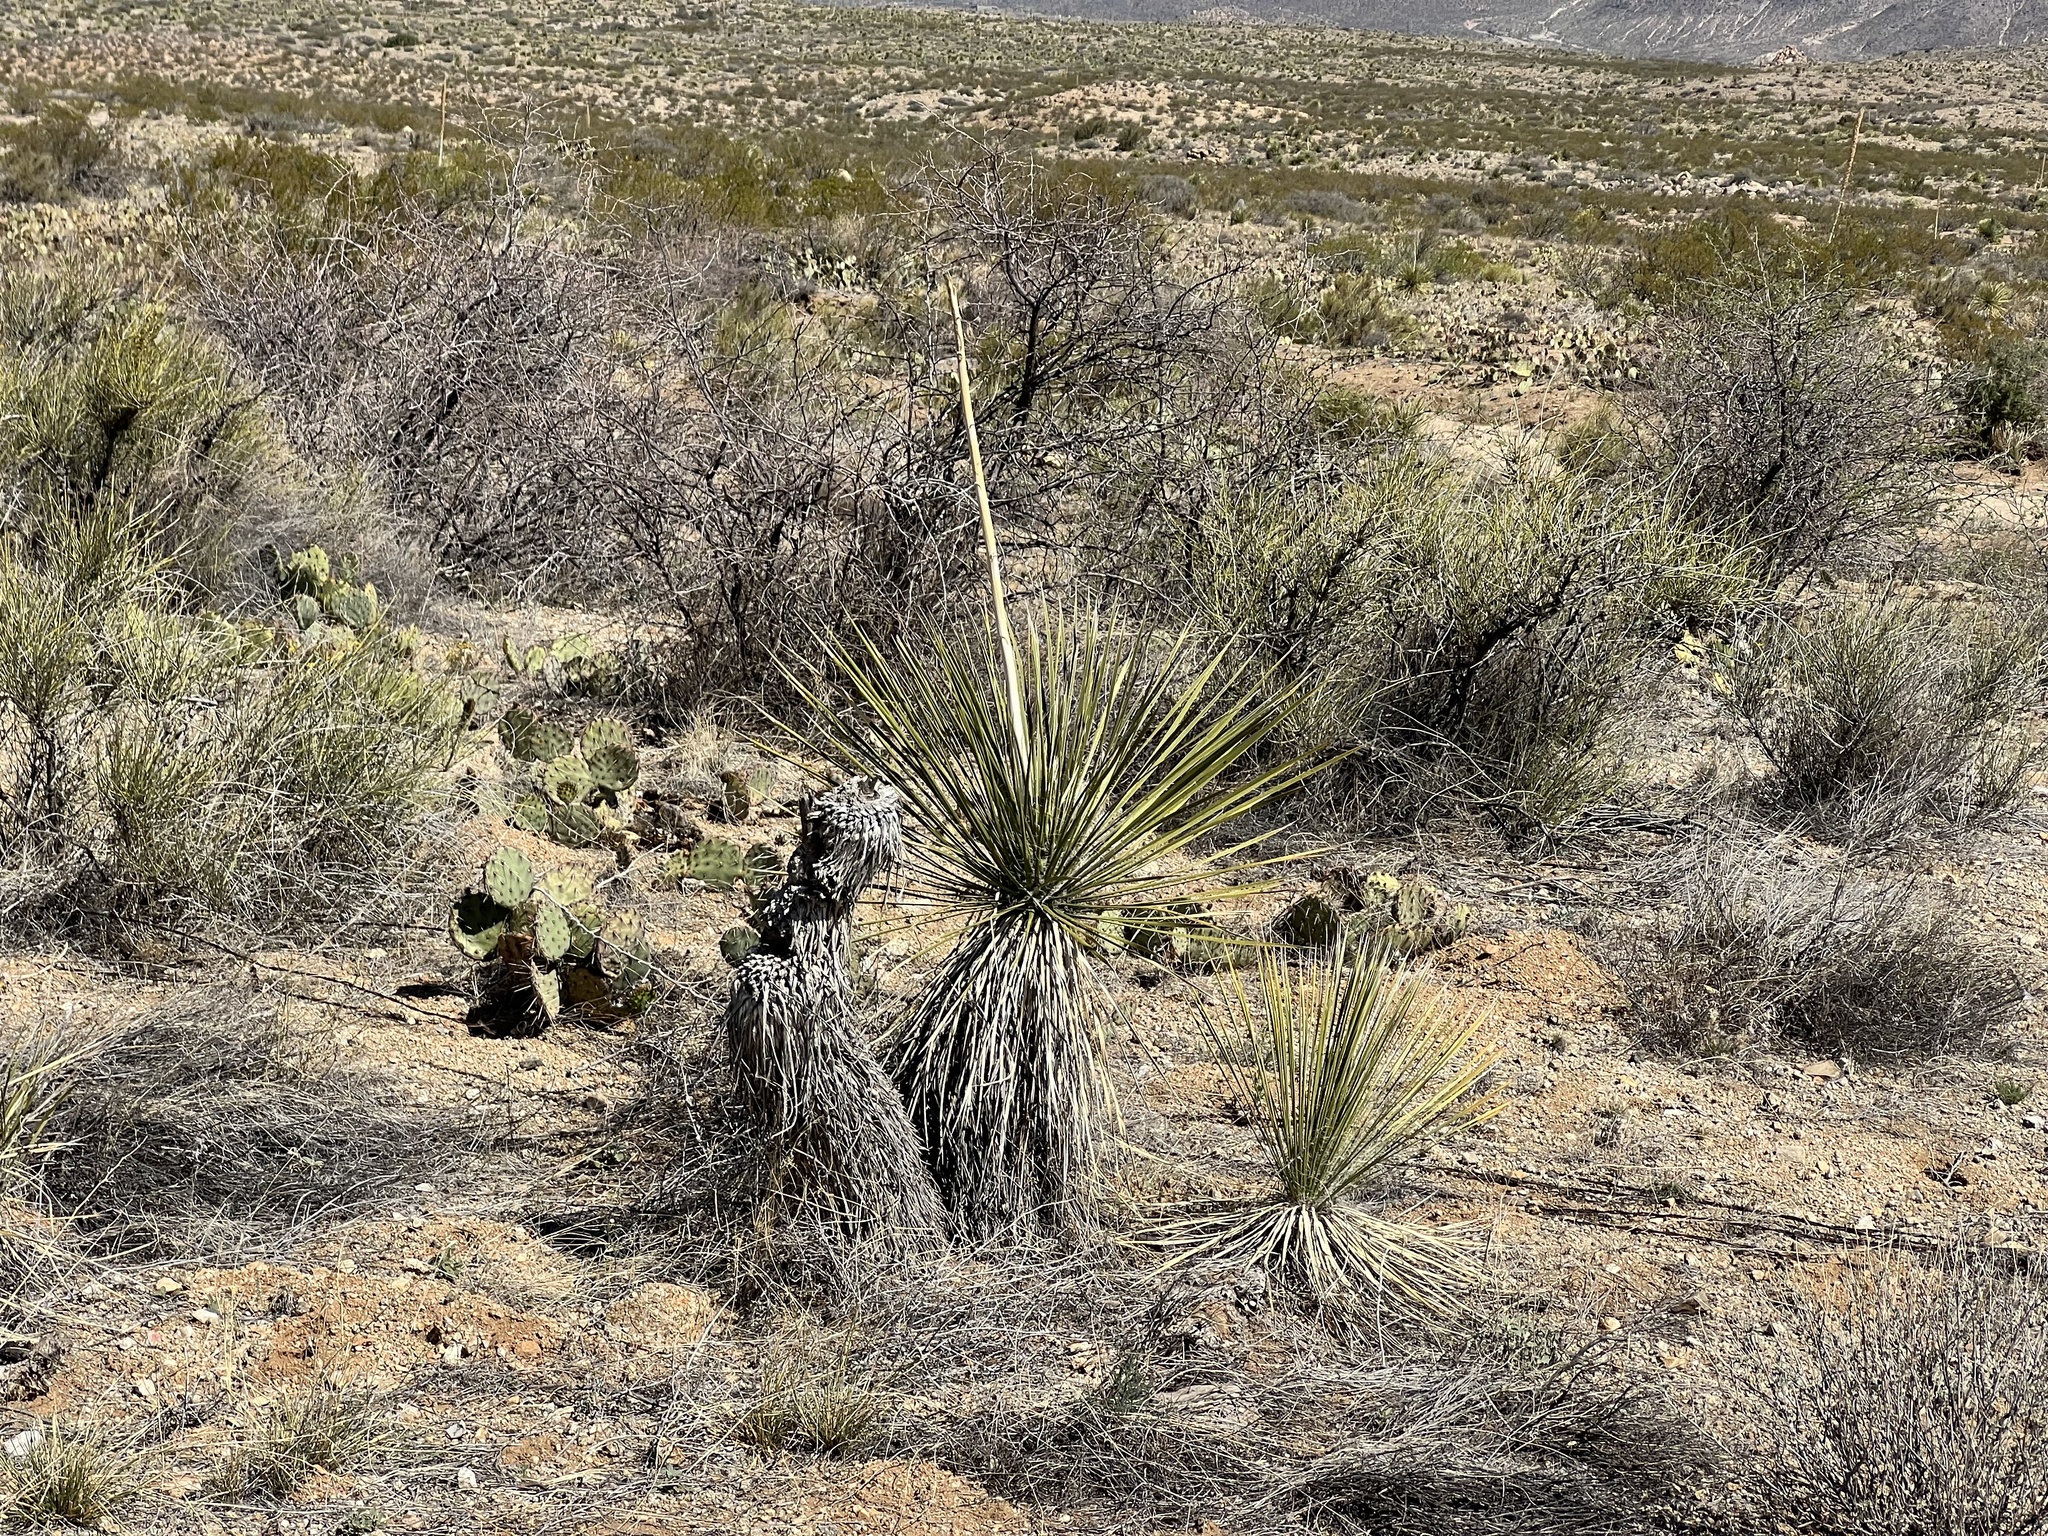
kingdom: Plantae
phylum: Tracheophyta
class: Liliopsida
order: Asparagales
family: Asparagaceae
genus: Yucca
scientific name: Yucca elata
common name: Palmella
